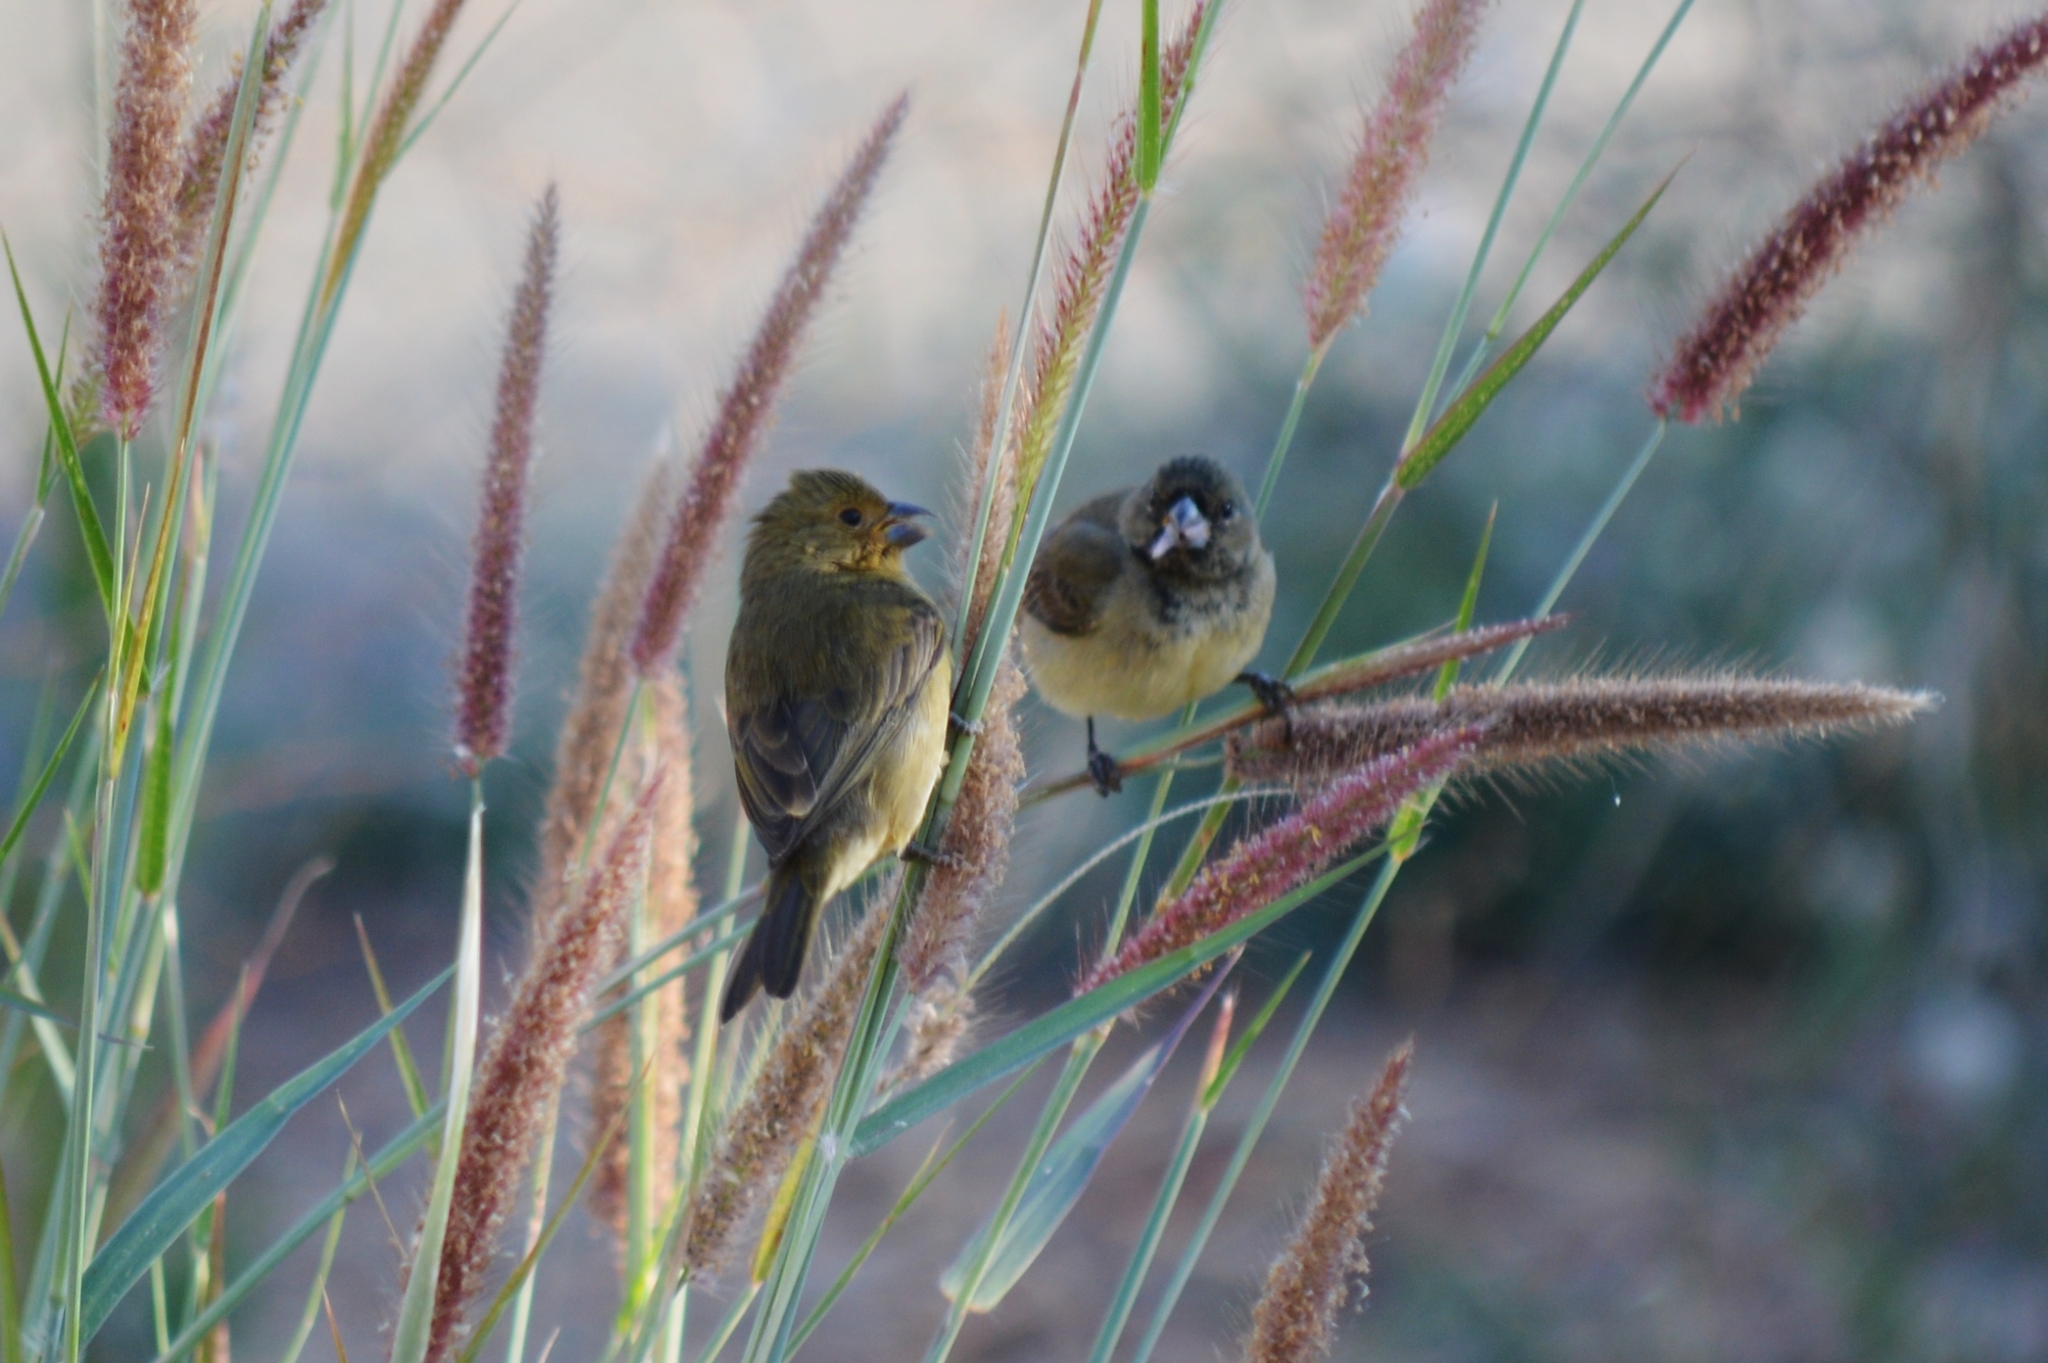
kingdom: Animalia
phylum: Chordata
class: Aves
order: Passeriformes
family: Thraupidae
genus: Sporophila
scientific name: Sporophila nigricollis
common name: Yellow-bellied seedeater
